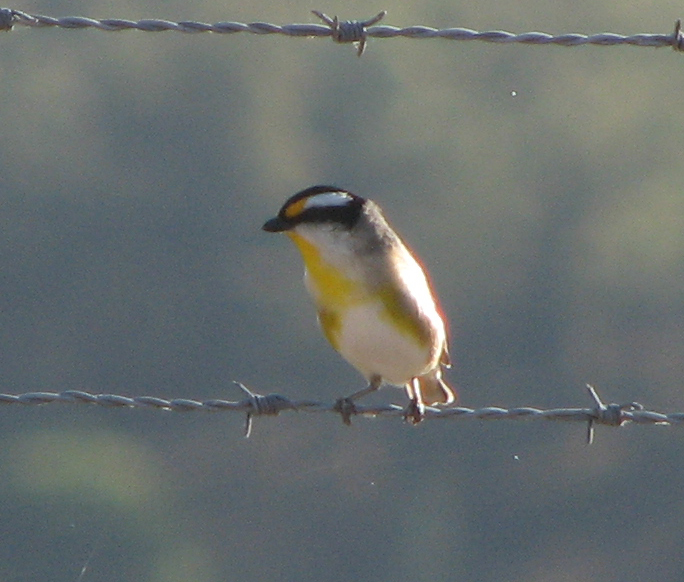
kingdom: Animalia
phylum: Chordata
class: Aves
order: Passeriformes
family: Pardalotidae
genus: Pardalotus
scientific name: Pardalotus striatus
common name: Striated pardalote
